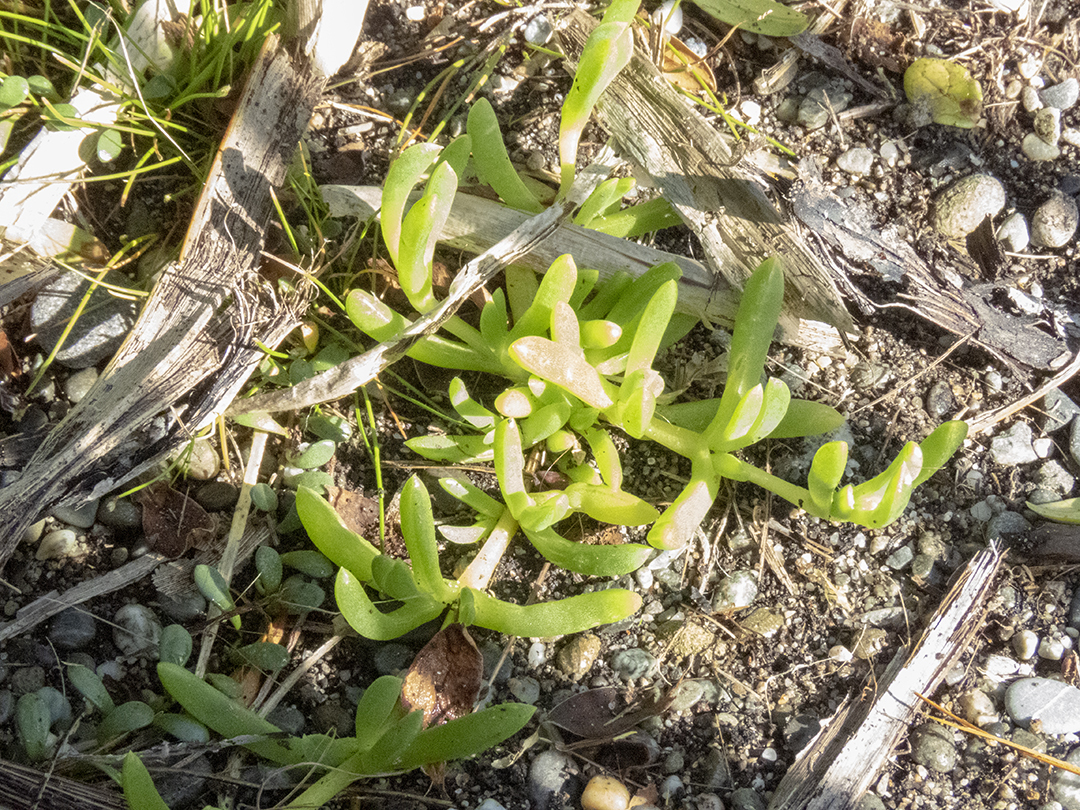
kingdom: Plantae
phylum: Tracheophyta
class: Magnoliopsida
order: Caryophyllales
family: Aizoaceae
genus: Disphyma
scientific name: Disphyma australe
